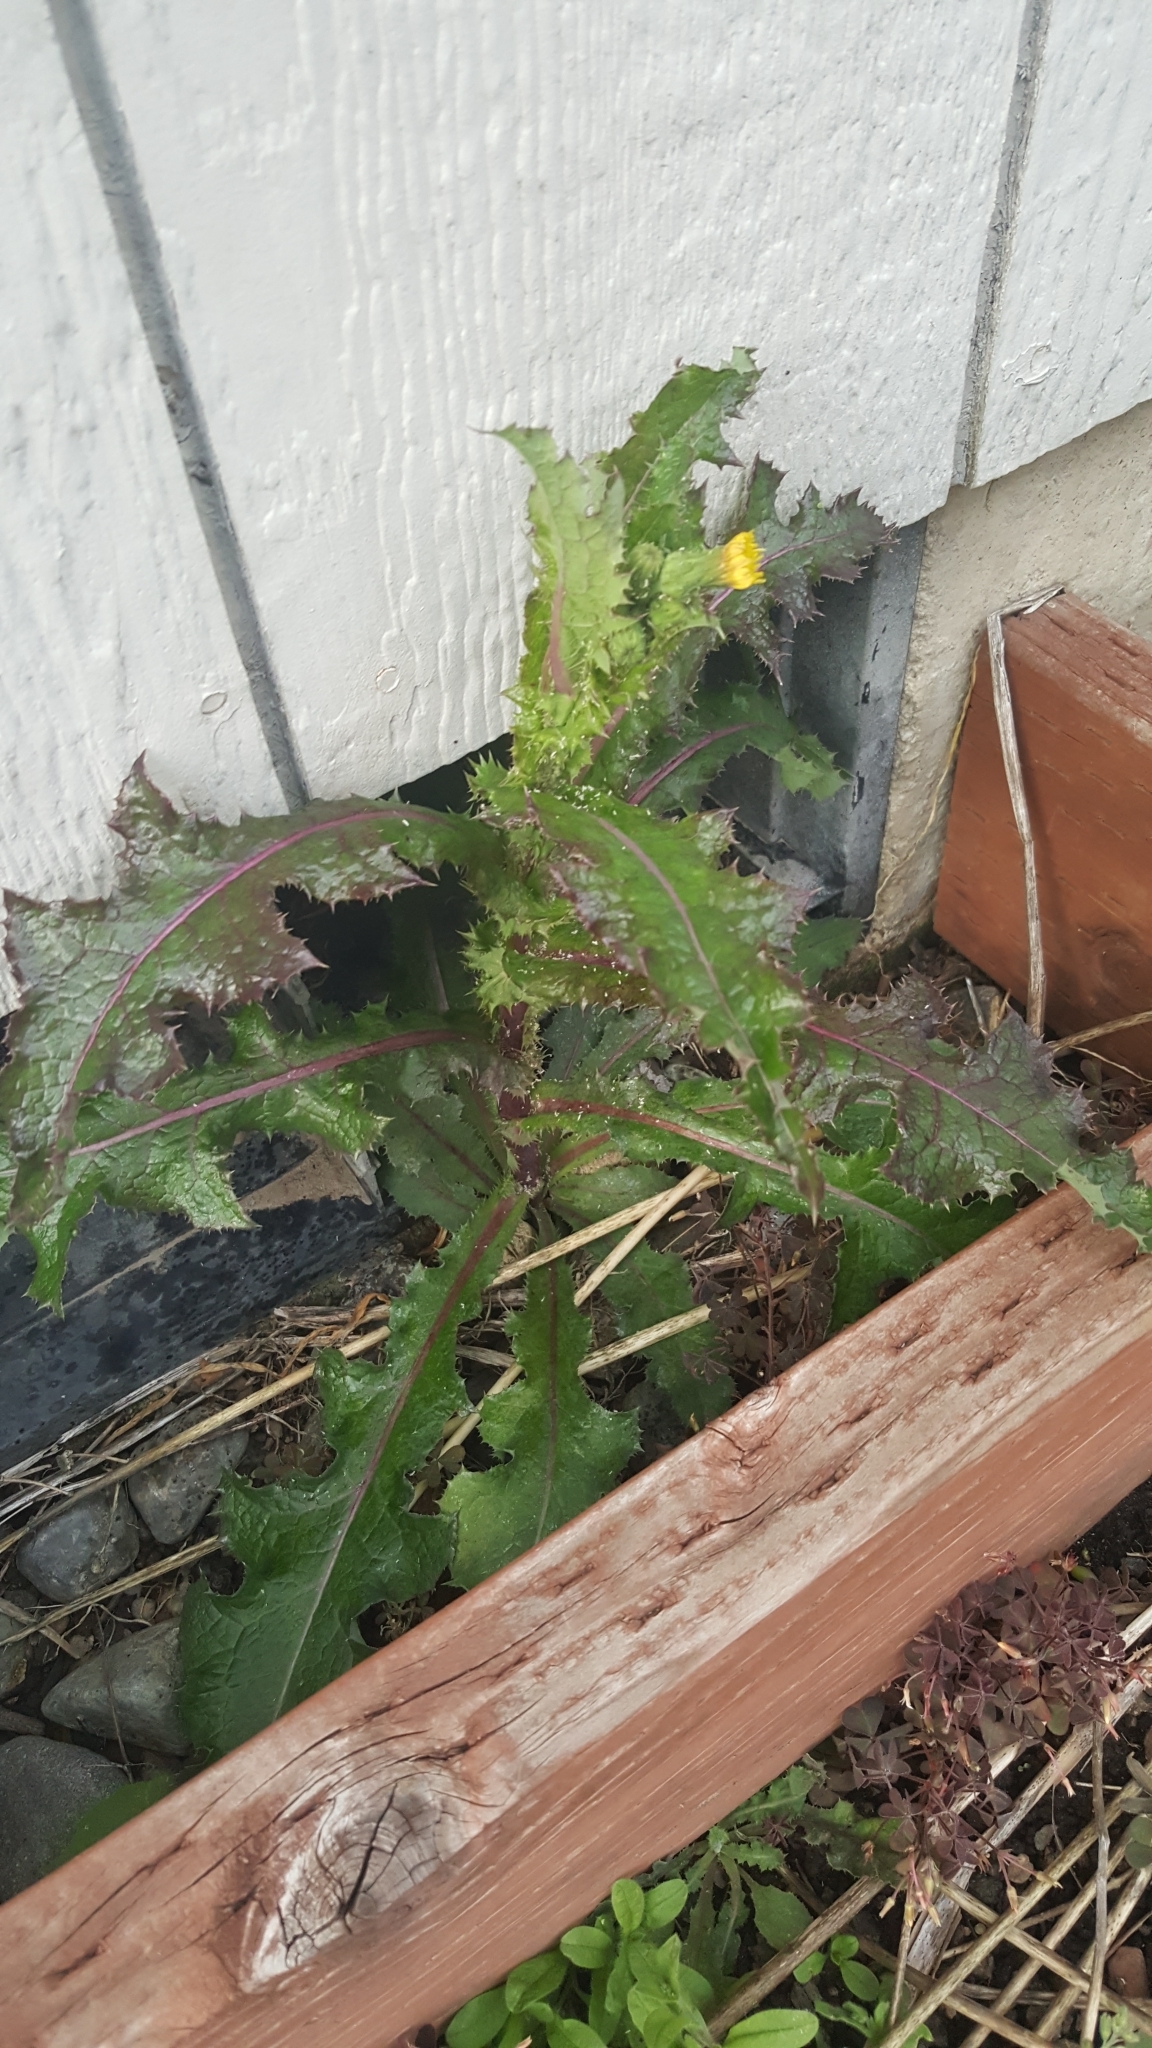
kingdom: Plantae
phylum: Tracheophyta
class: Magnoliopsida
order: Asterales
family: Asteraceae
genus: Sonchus
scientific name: Sonchus asper
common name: Prickly sow-thistle
